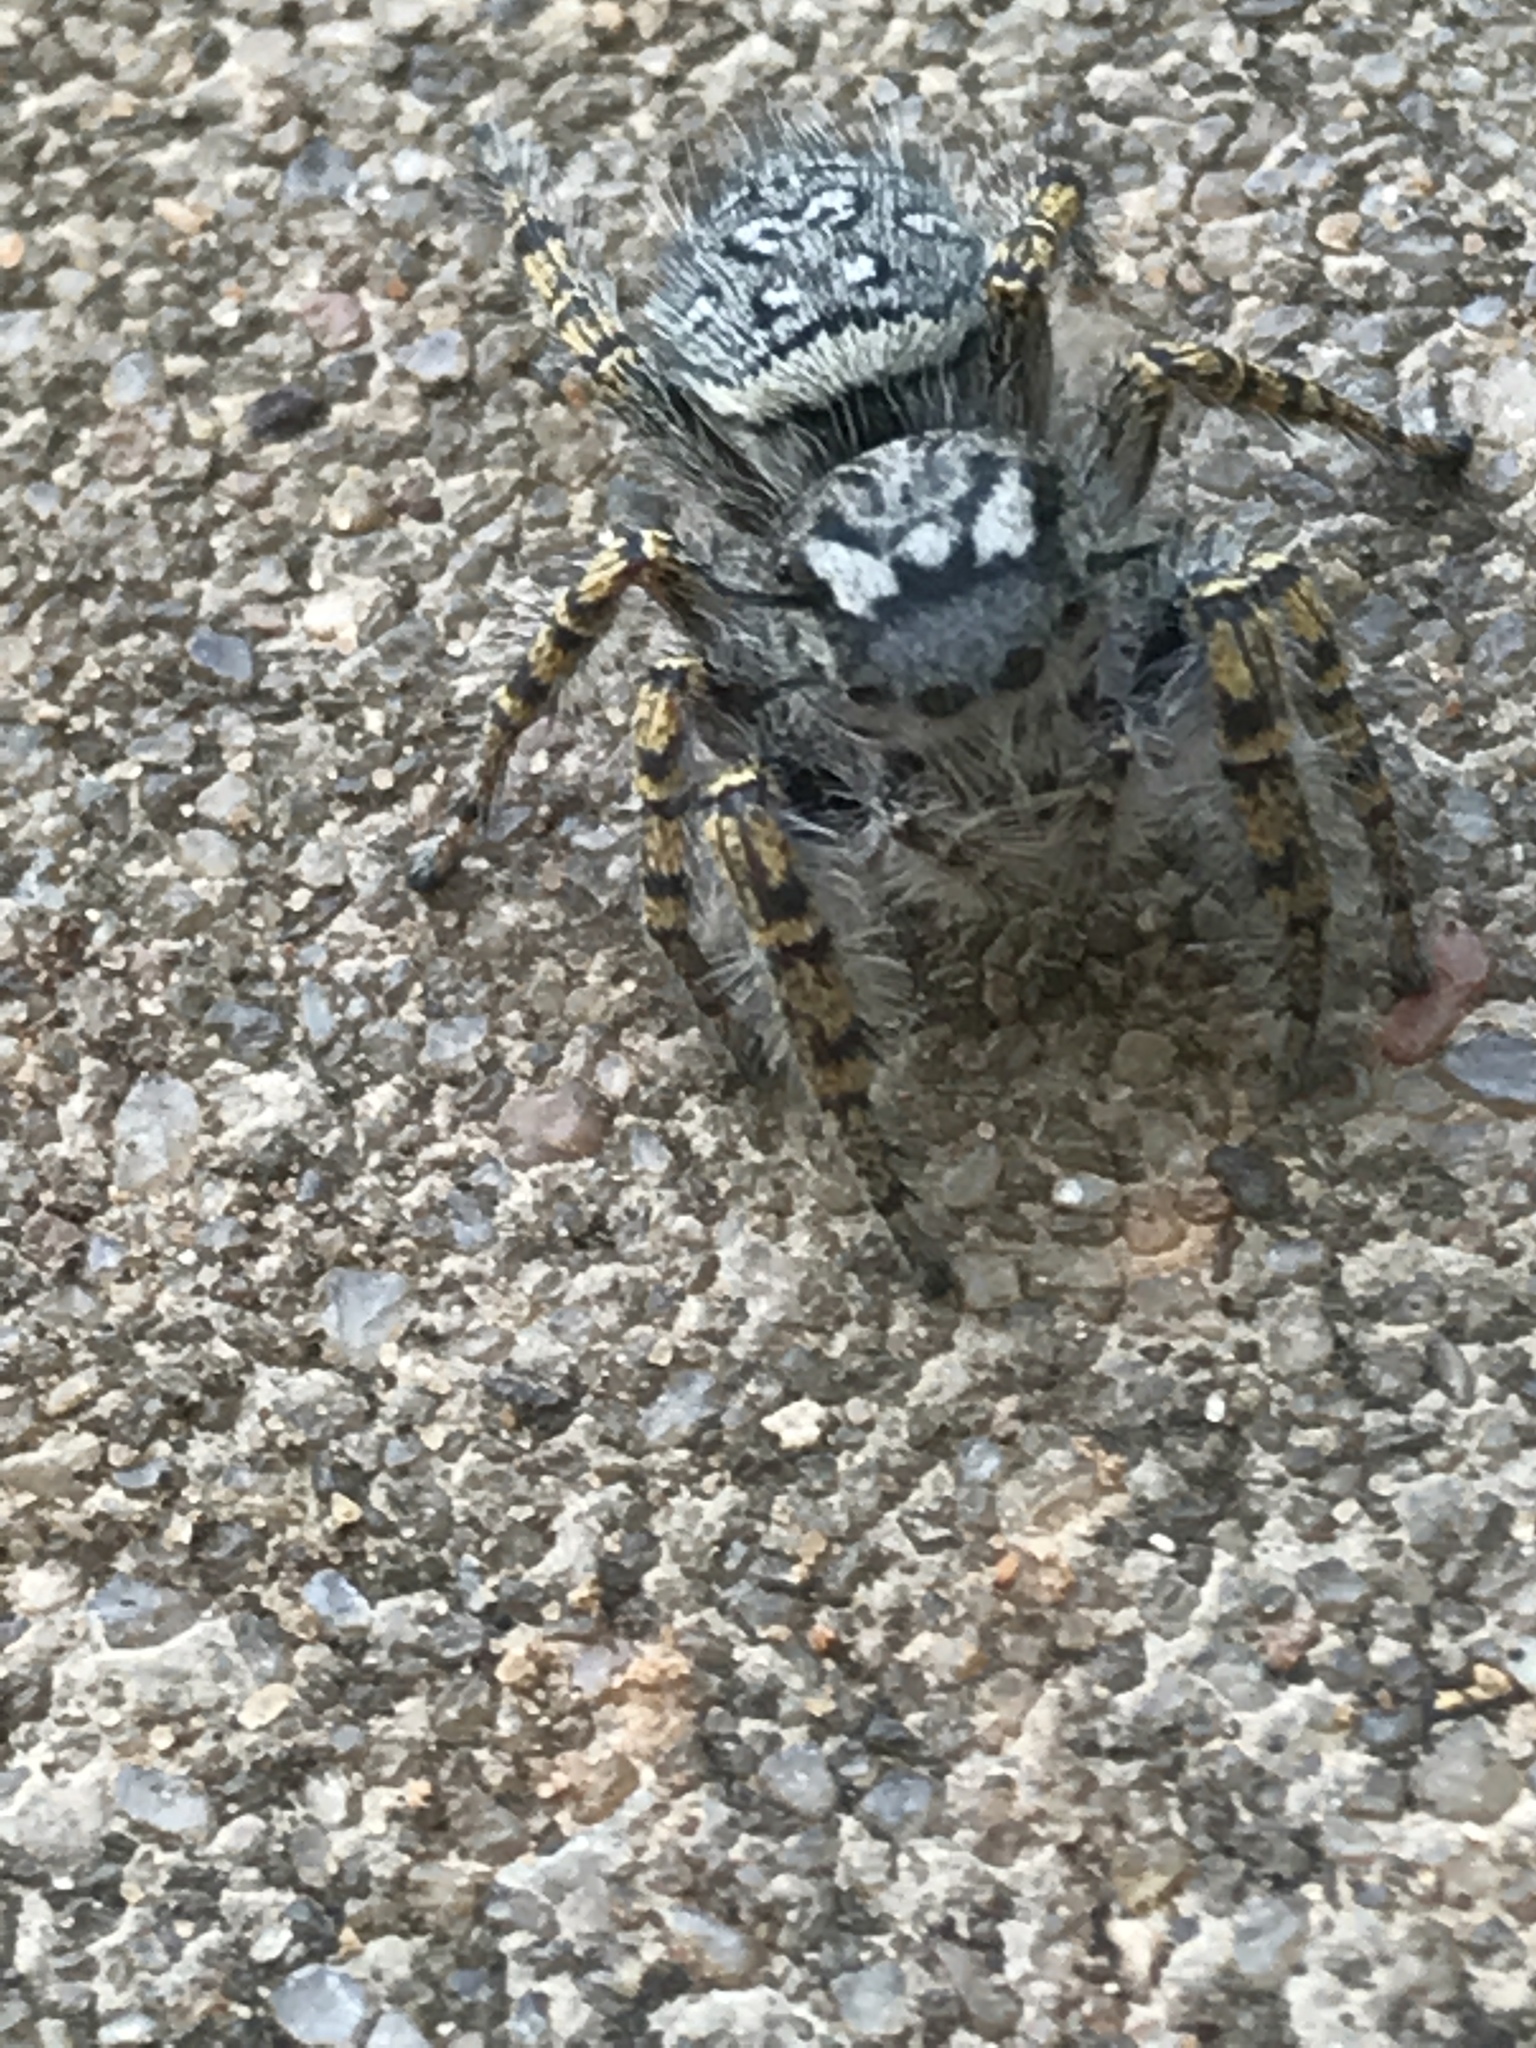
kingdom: Animalia
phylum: Arthropoda
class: Arachnida
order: Araneae
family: Salticidae
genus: Phidippus
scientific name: Phidippus mystaceus
